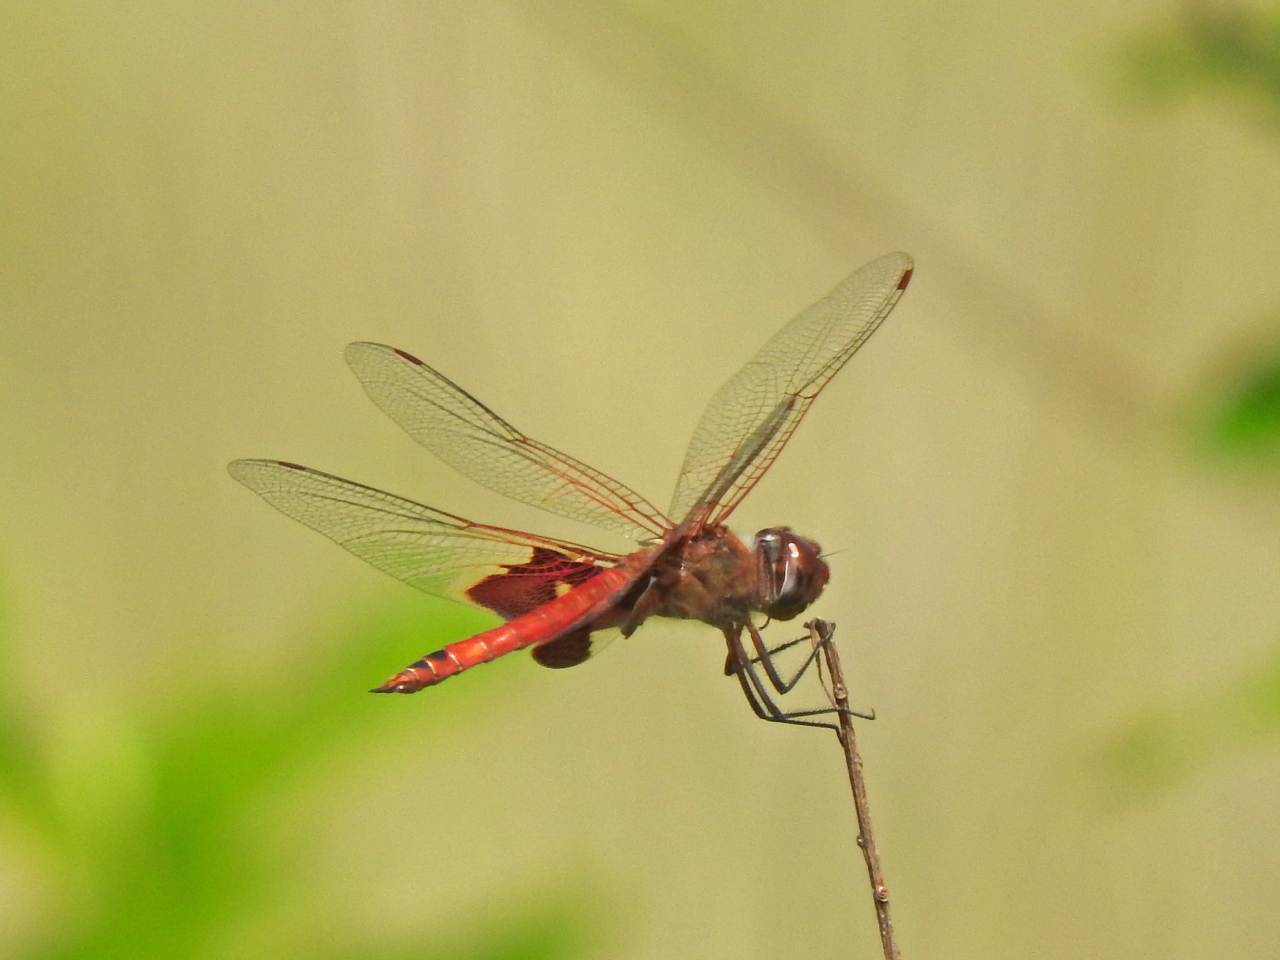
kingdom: Animalia
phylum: Arthropoda
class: Insecta
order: Odonata
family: Libellulidae
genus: Tramea
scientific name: Tramea onusta
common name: Red saddlebags
